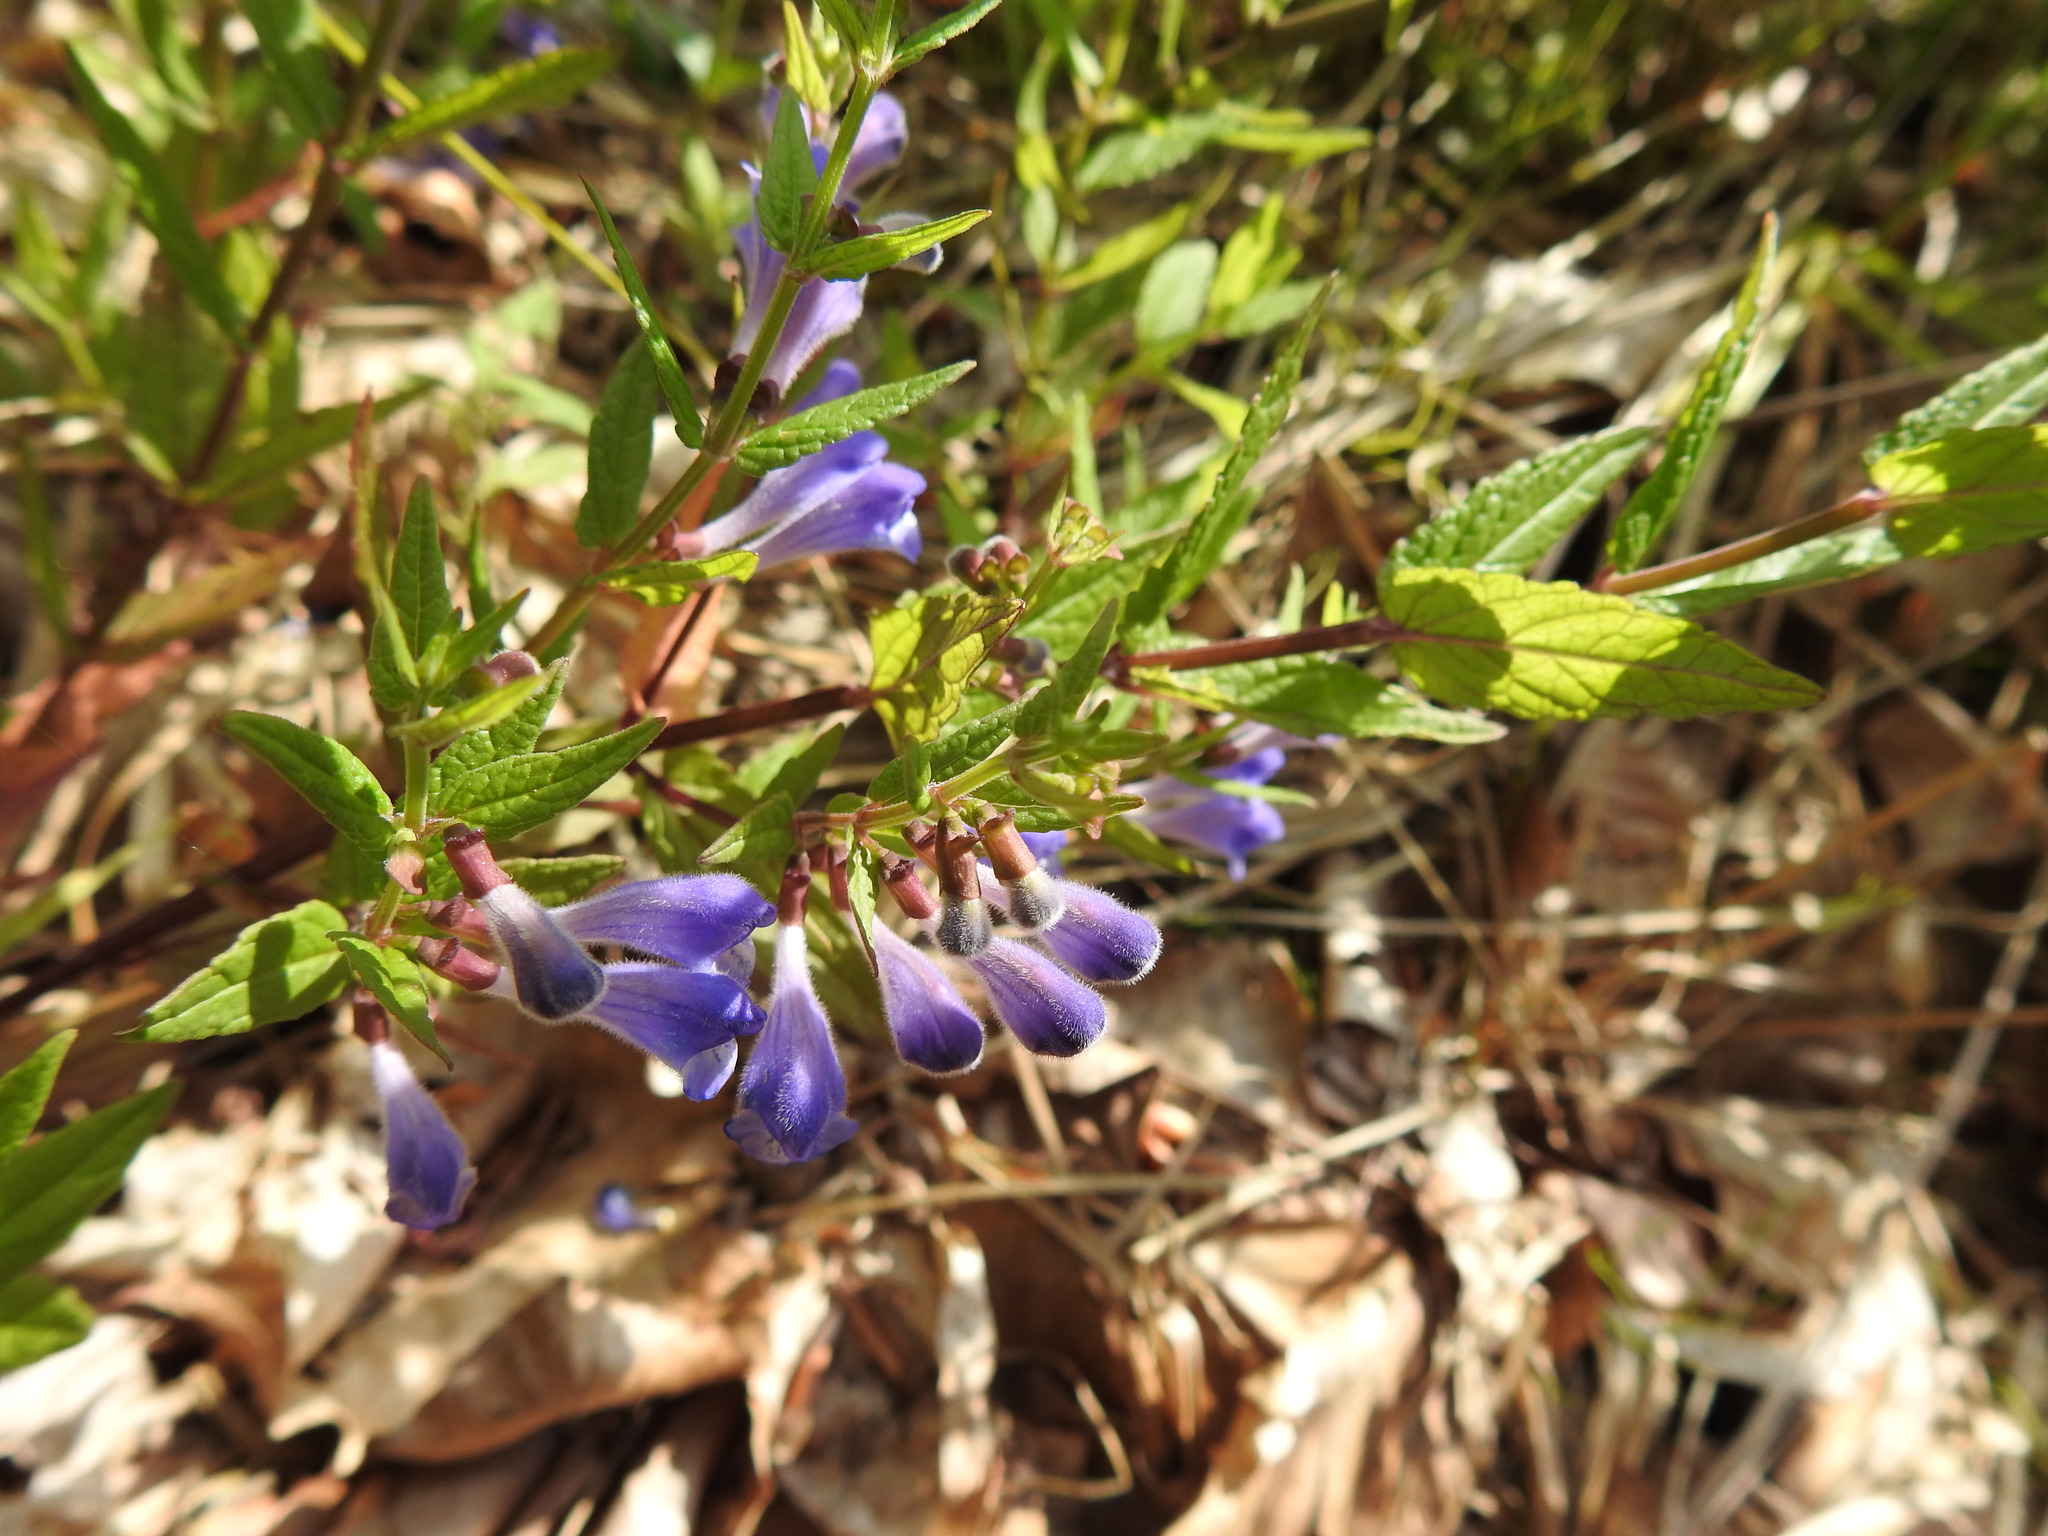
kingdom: Plantae
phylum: Tracheophyta
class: Magnoliopsida
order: Lamiales
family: Lamiaceae
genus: Scutellaria
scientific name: Scutellaria galericulata
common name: Skullcap
